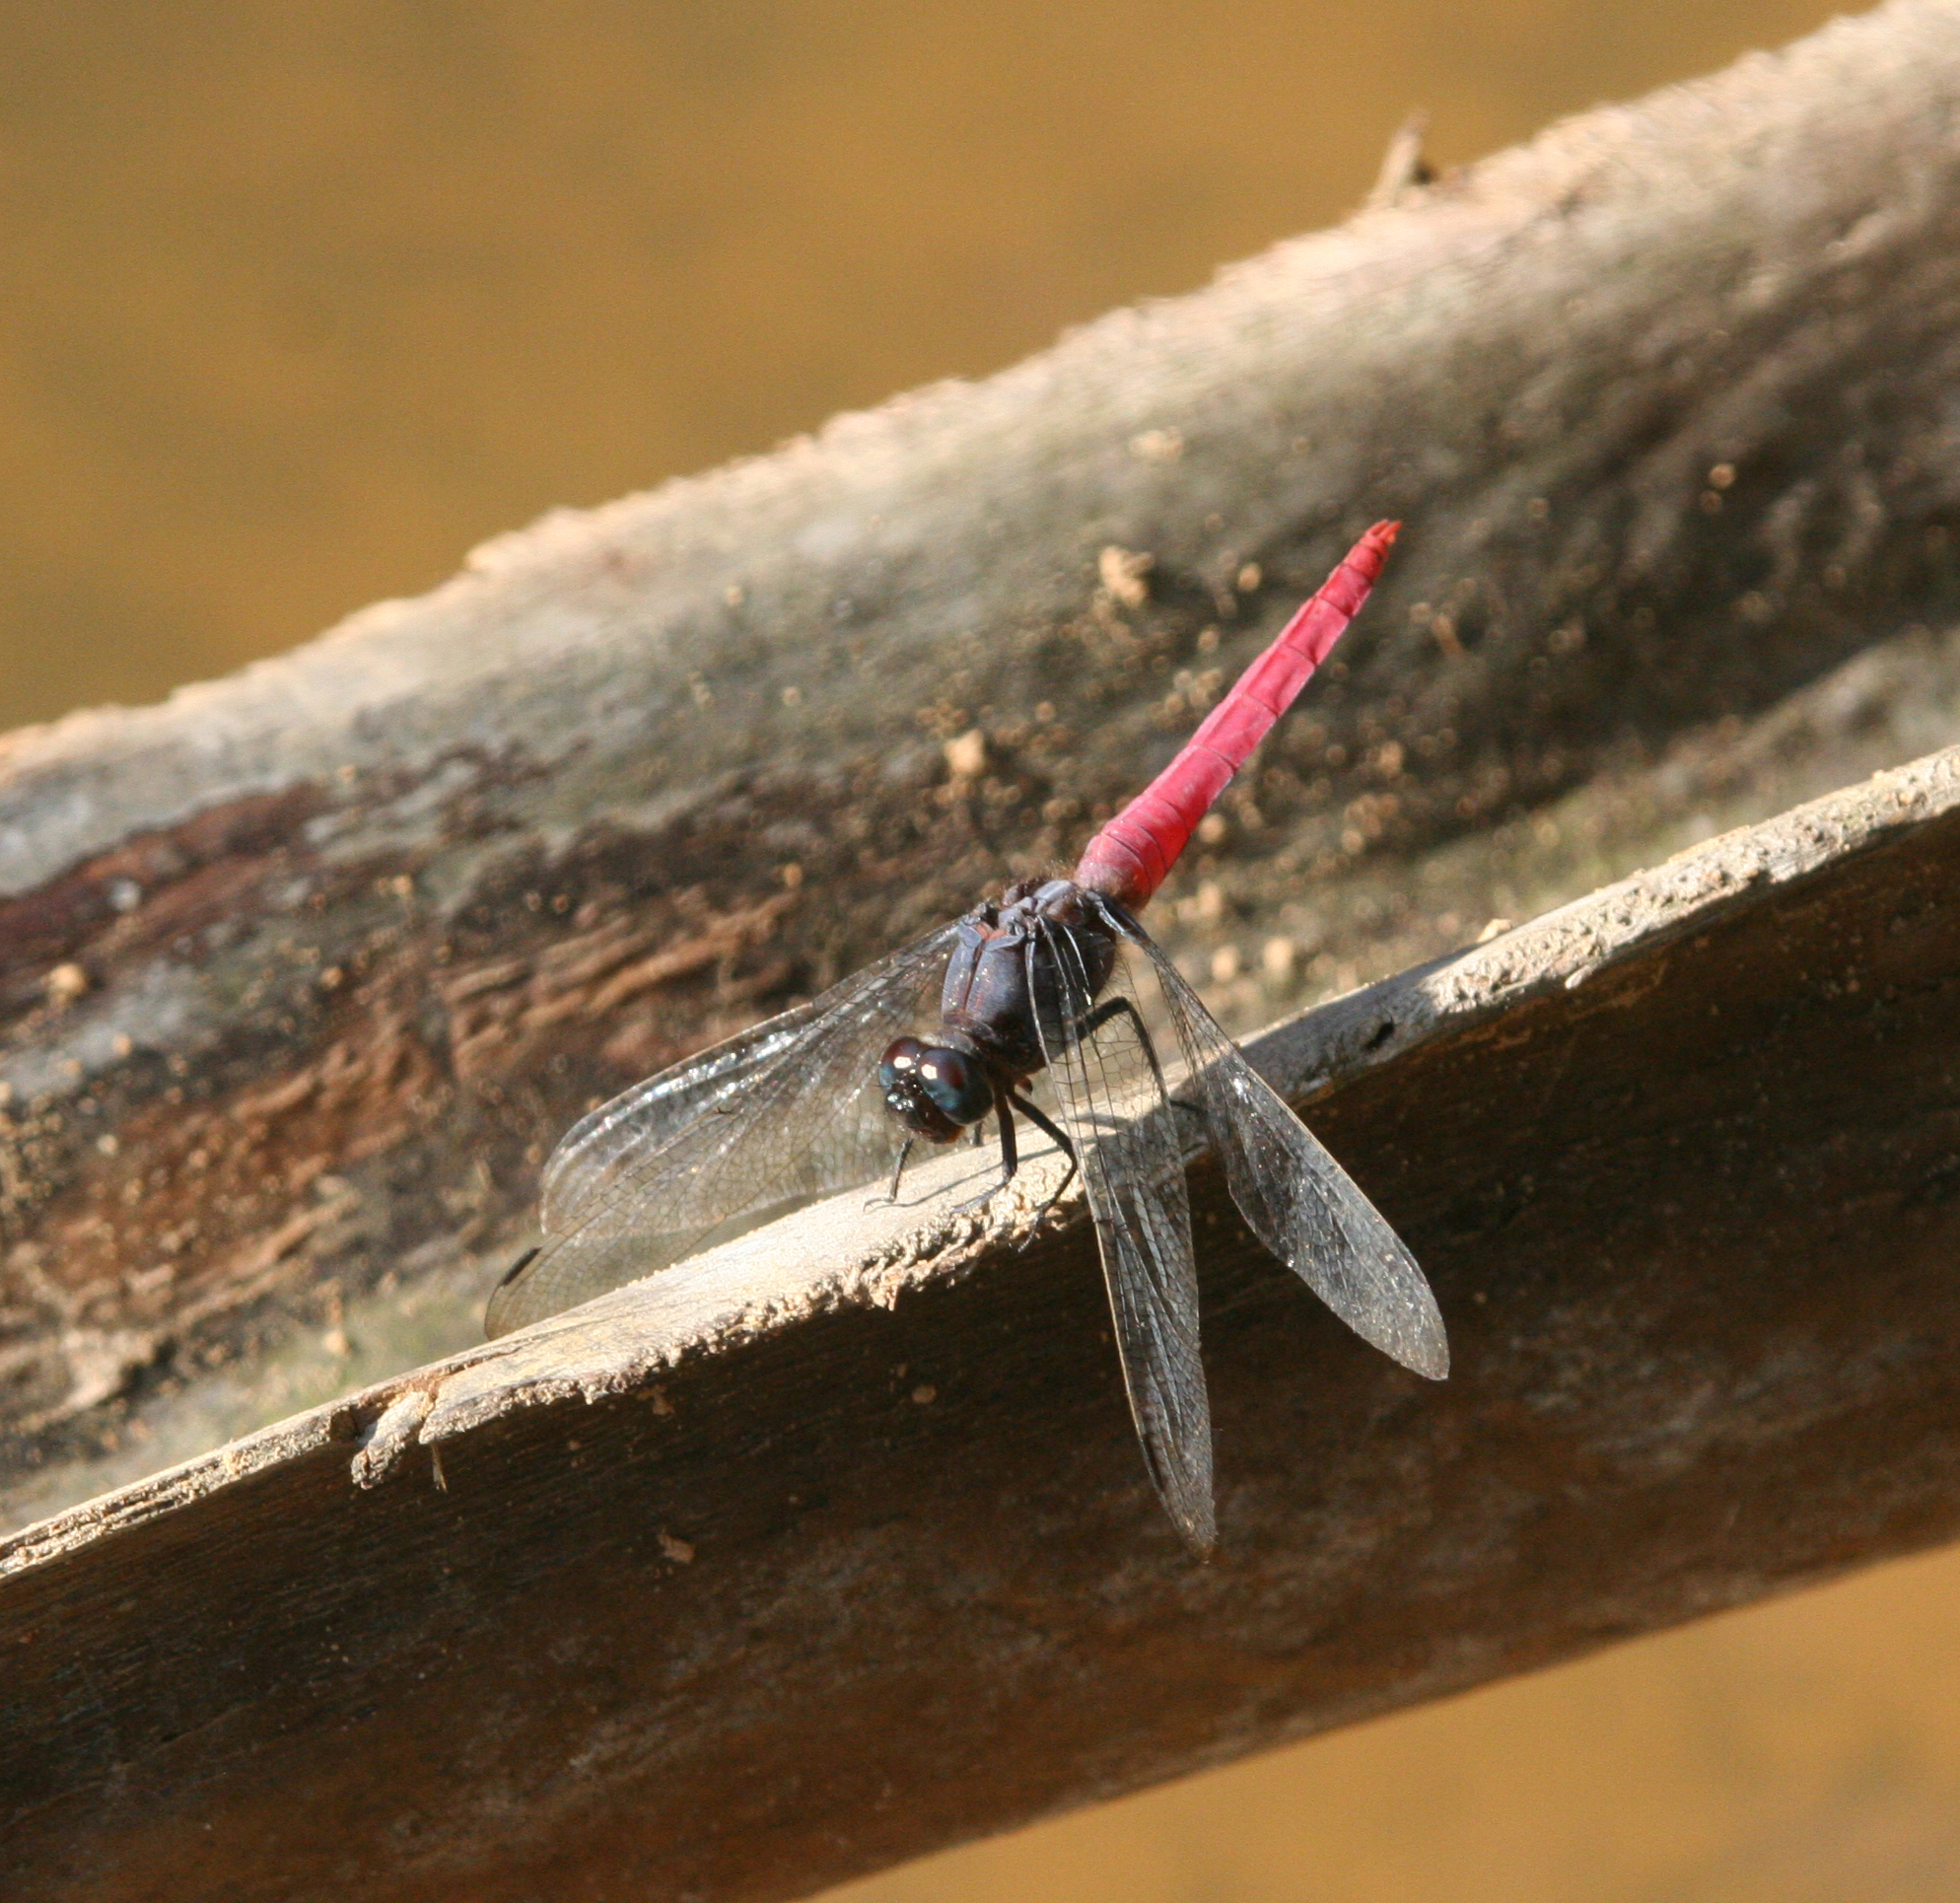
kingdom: Animalia
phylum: Arthropoda
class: Insecta
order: Odonata
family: Libellulidae
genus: Orthetrum
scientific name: Orthetrum pruinosum
